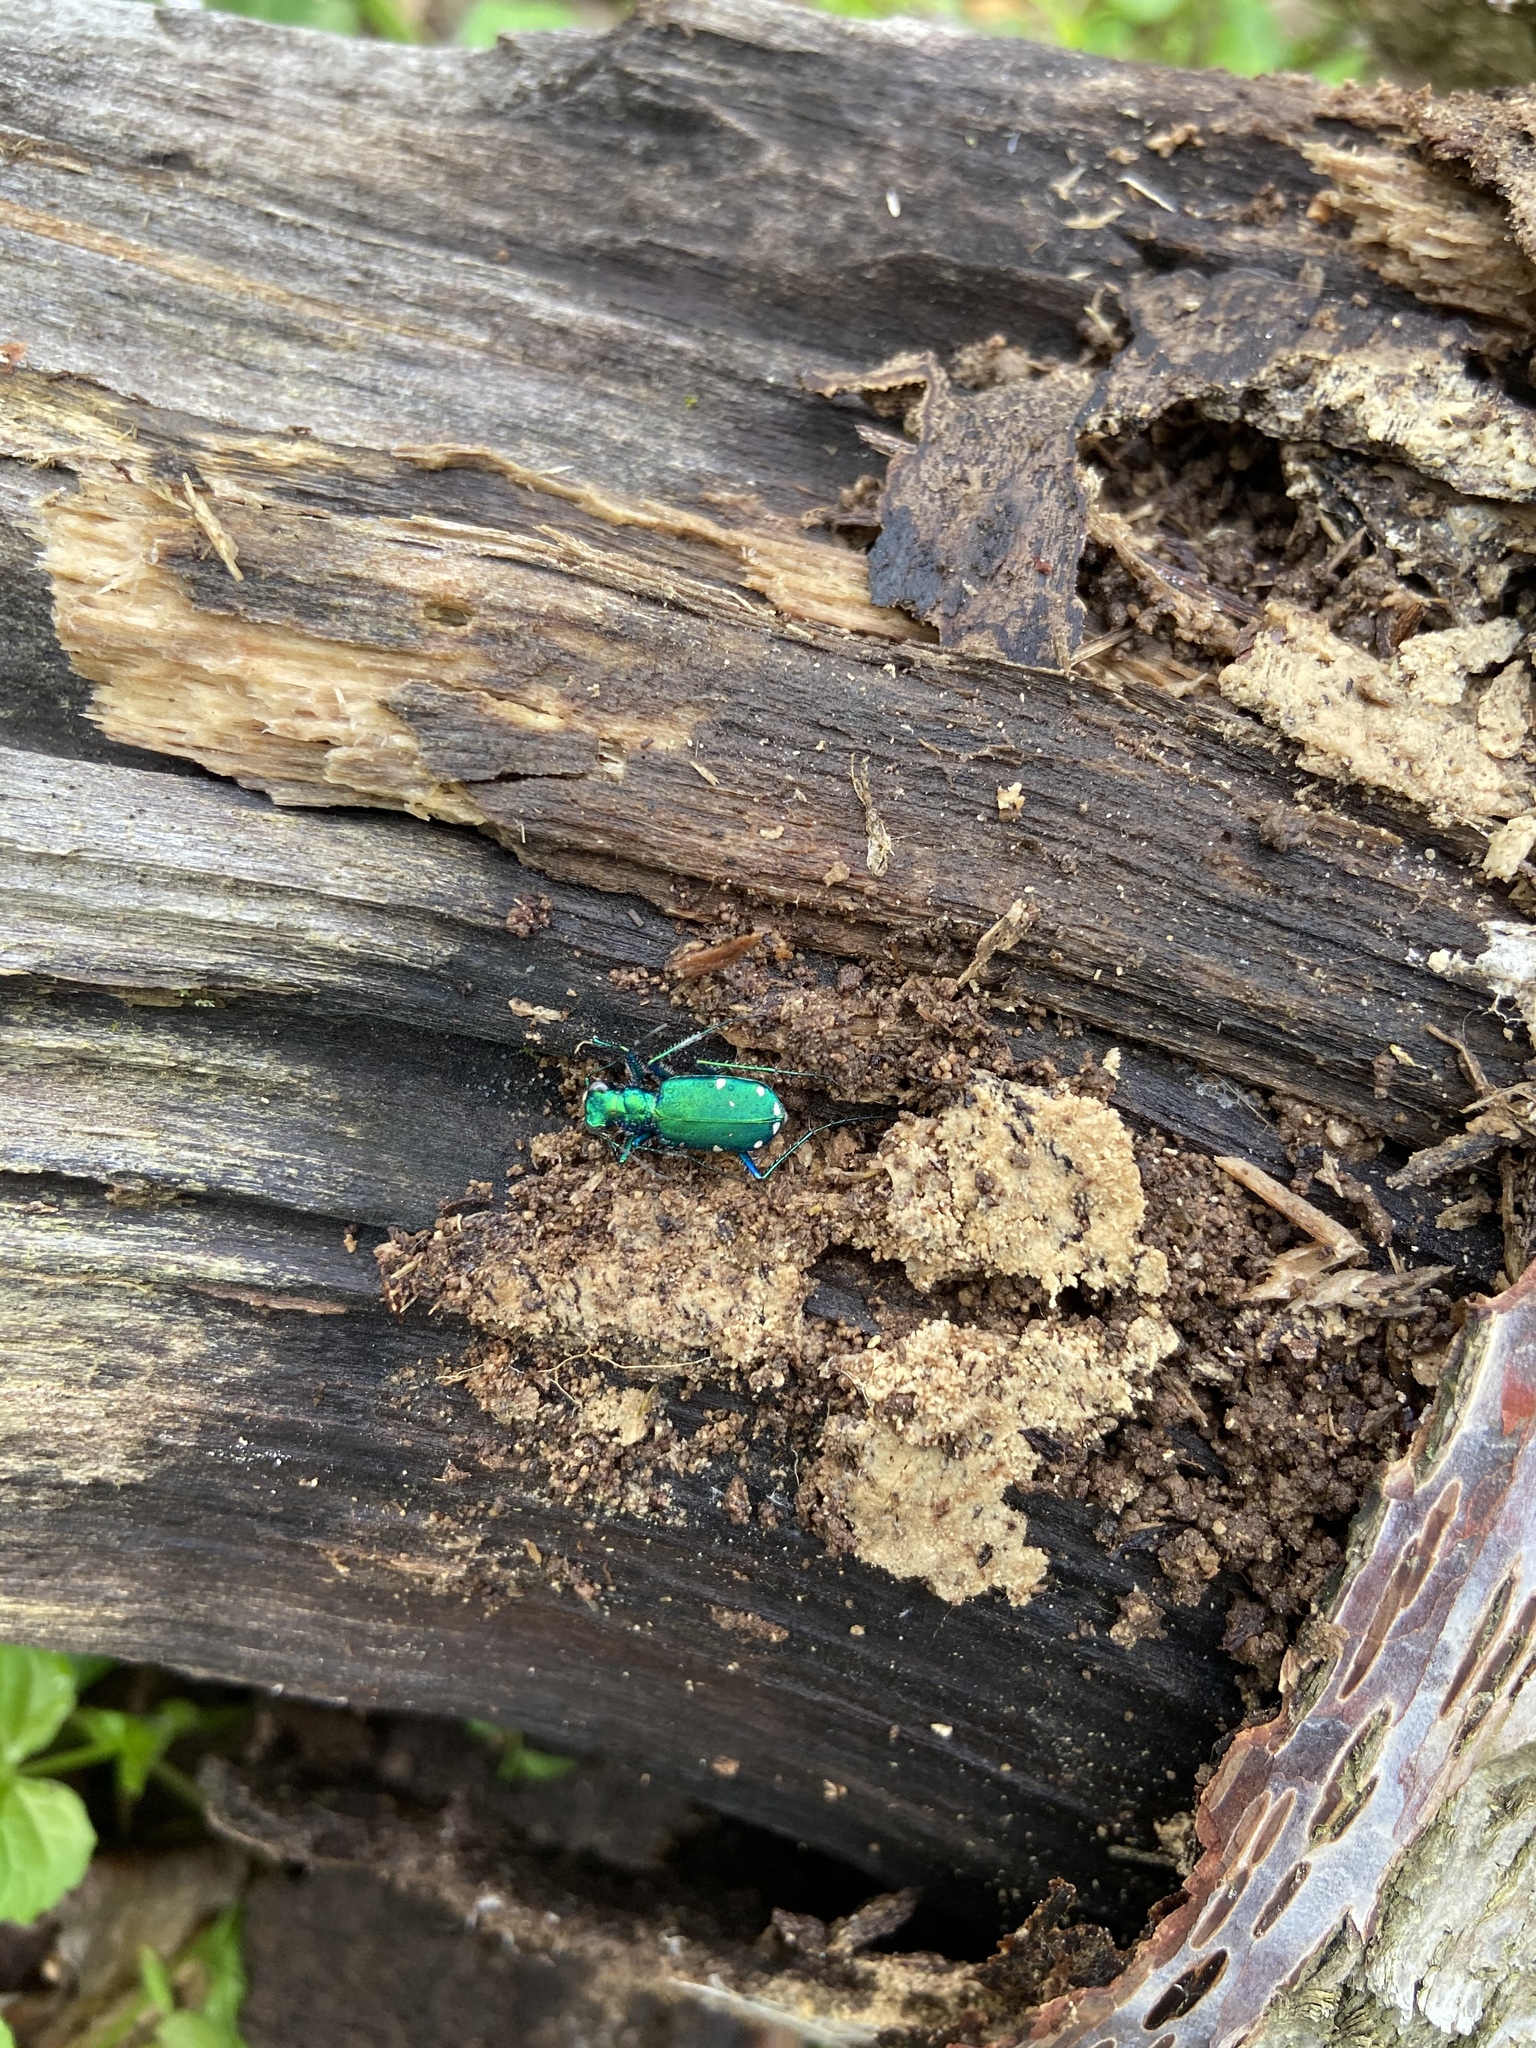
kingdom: Animalia
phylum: Arthropoda
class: Insecta
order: Coleoptera
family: Carabidae
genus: Cicindela
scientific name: Cicindela sexguttata
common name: Six-spotted tiger beetle
